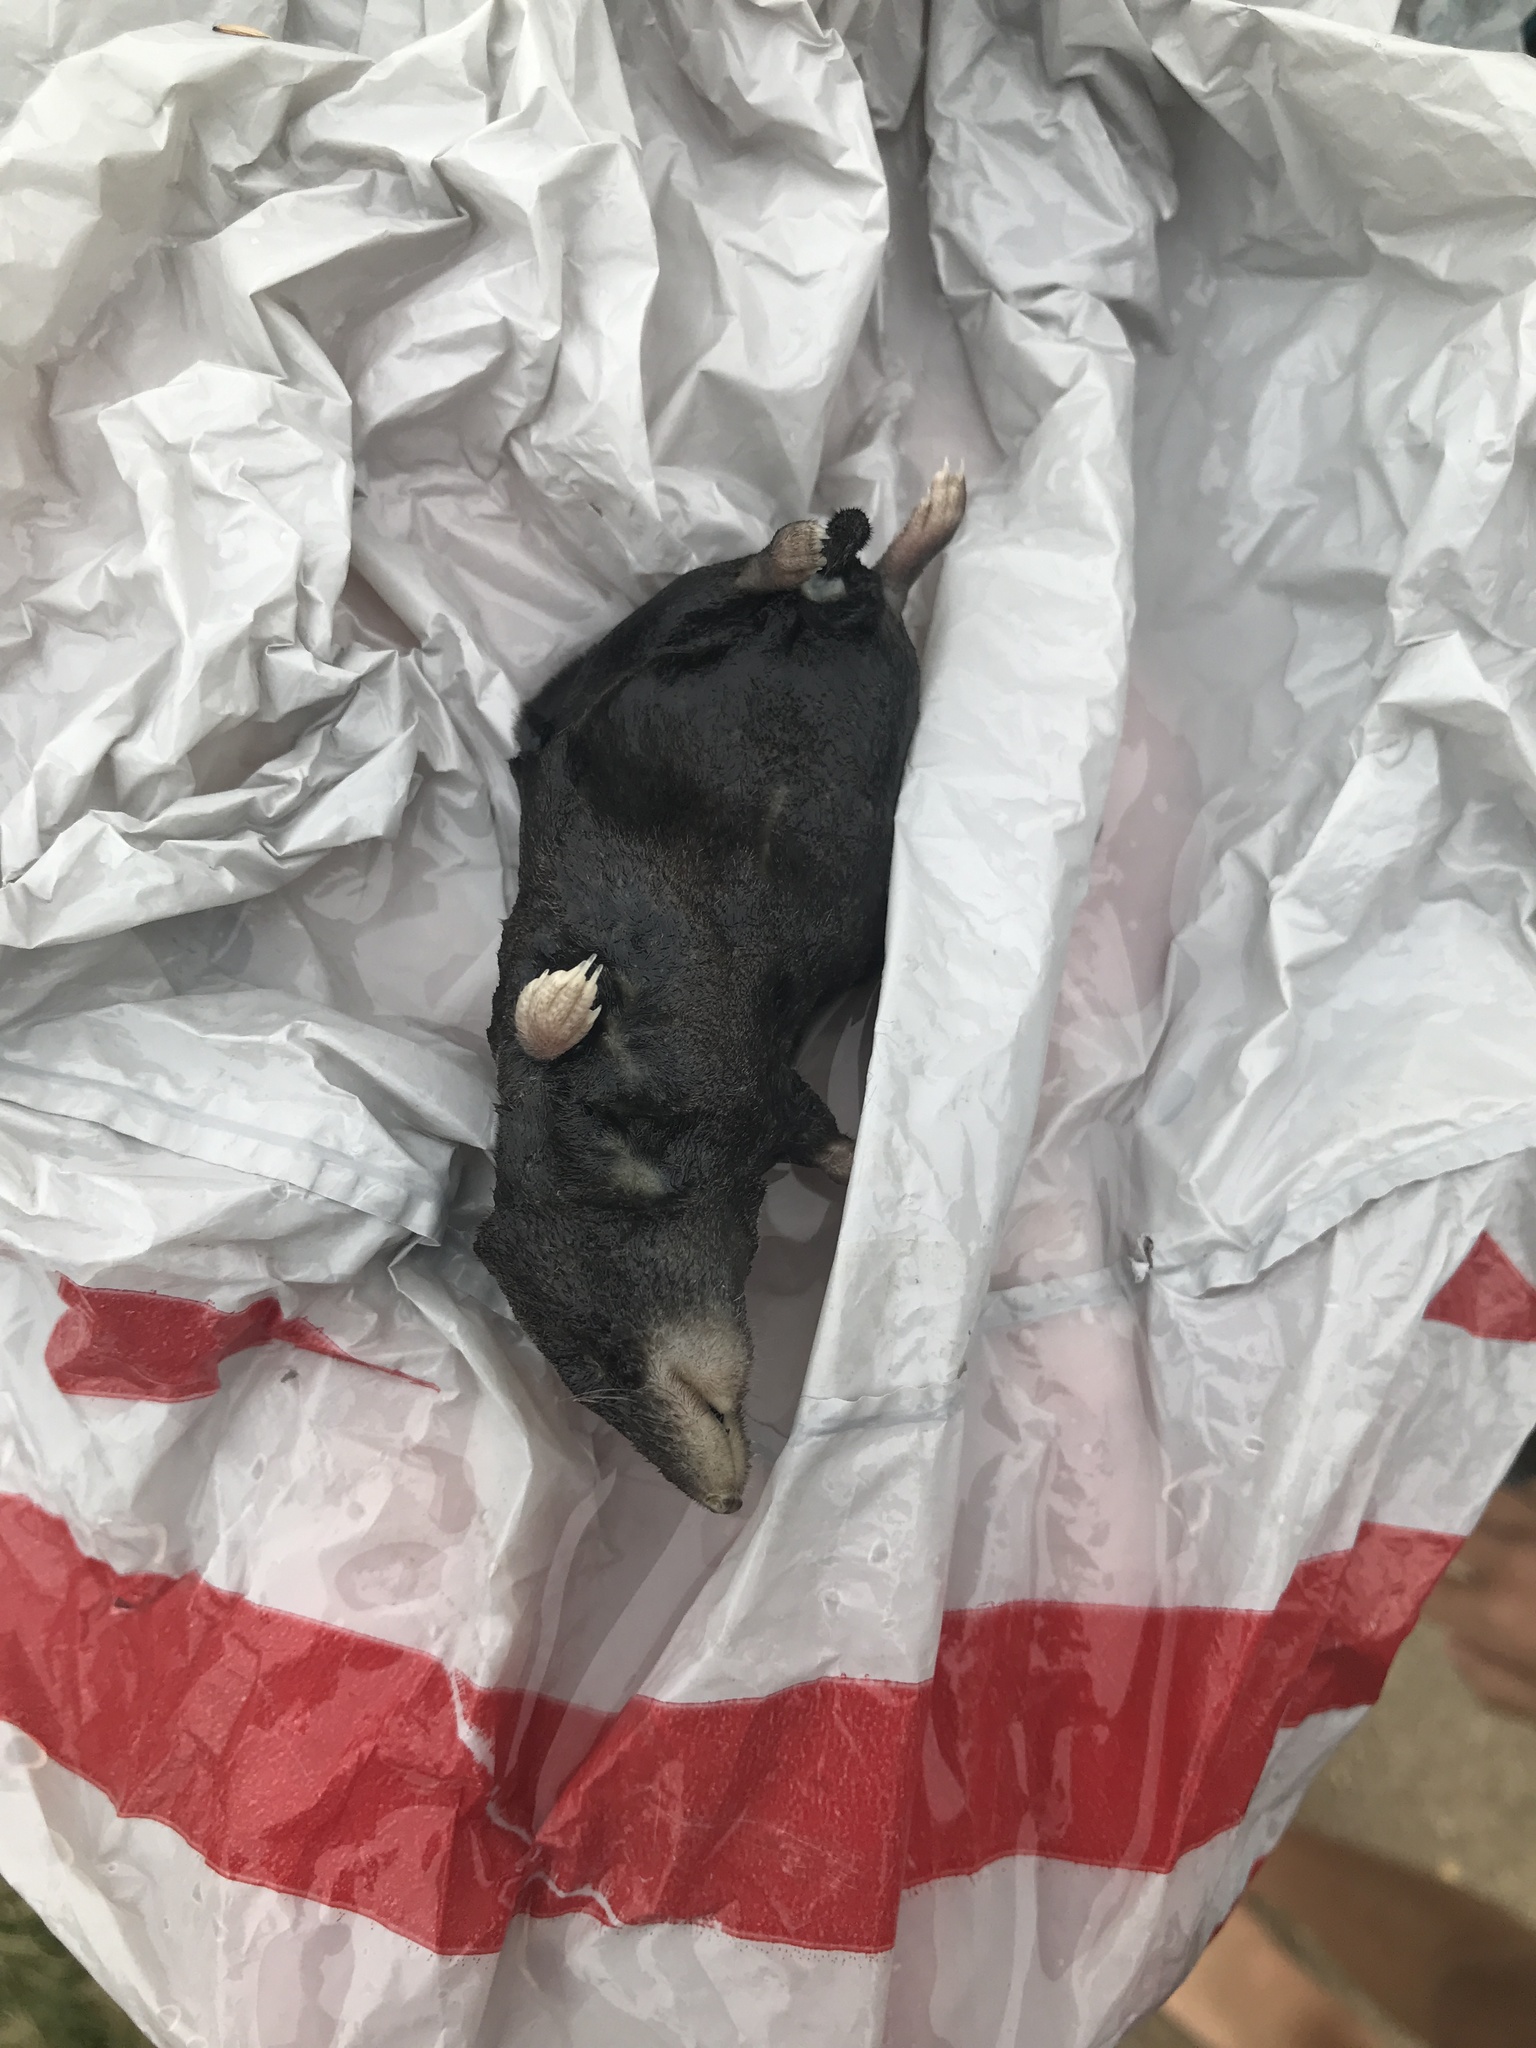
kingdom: Animalia
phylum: Chordata
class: Mammalia
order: Soricomorpha
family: Soricidae
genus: Blarina
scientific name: Blarina brevicauda
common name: Northern short-tailed shrew
